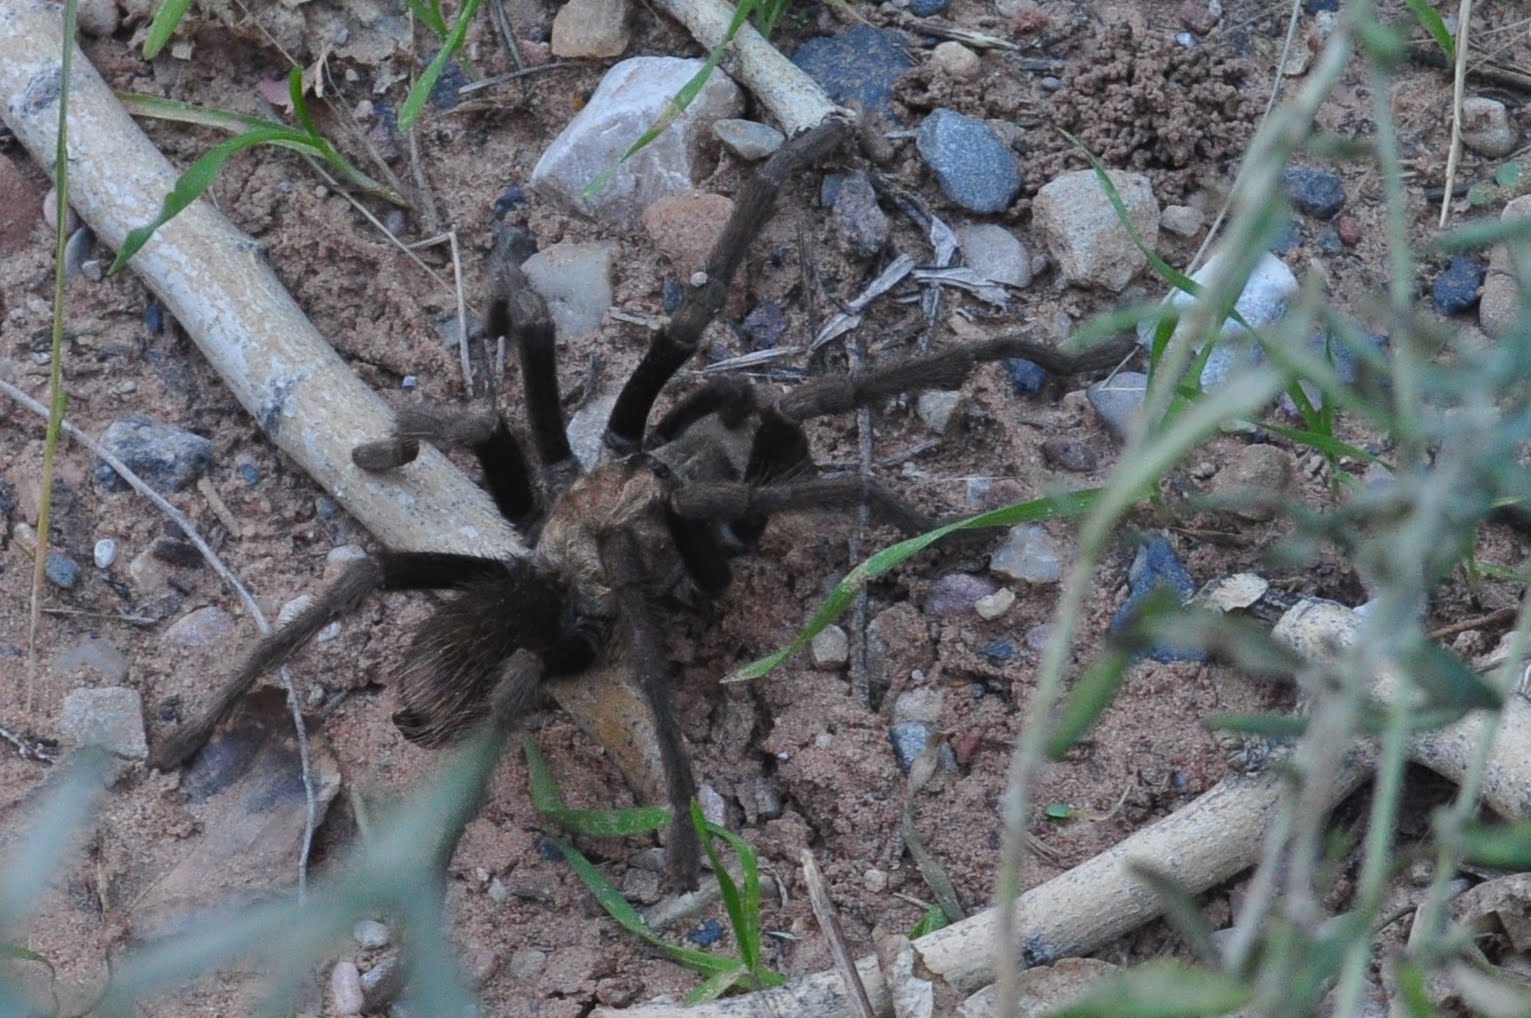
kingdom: Animalia
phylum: Arthropoda
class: Arachnida
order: Araneae
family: Theraphosidae
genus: Aphonopelma
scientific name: Aphonopelma iodius
